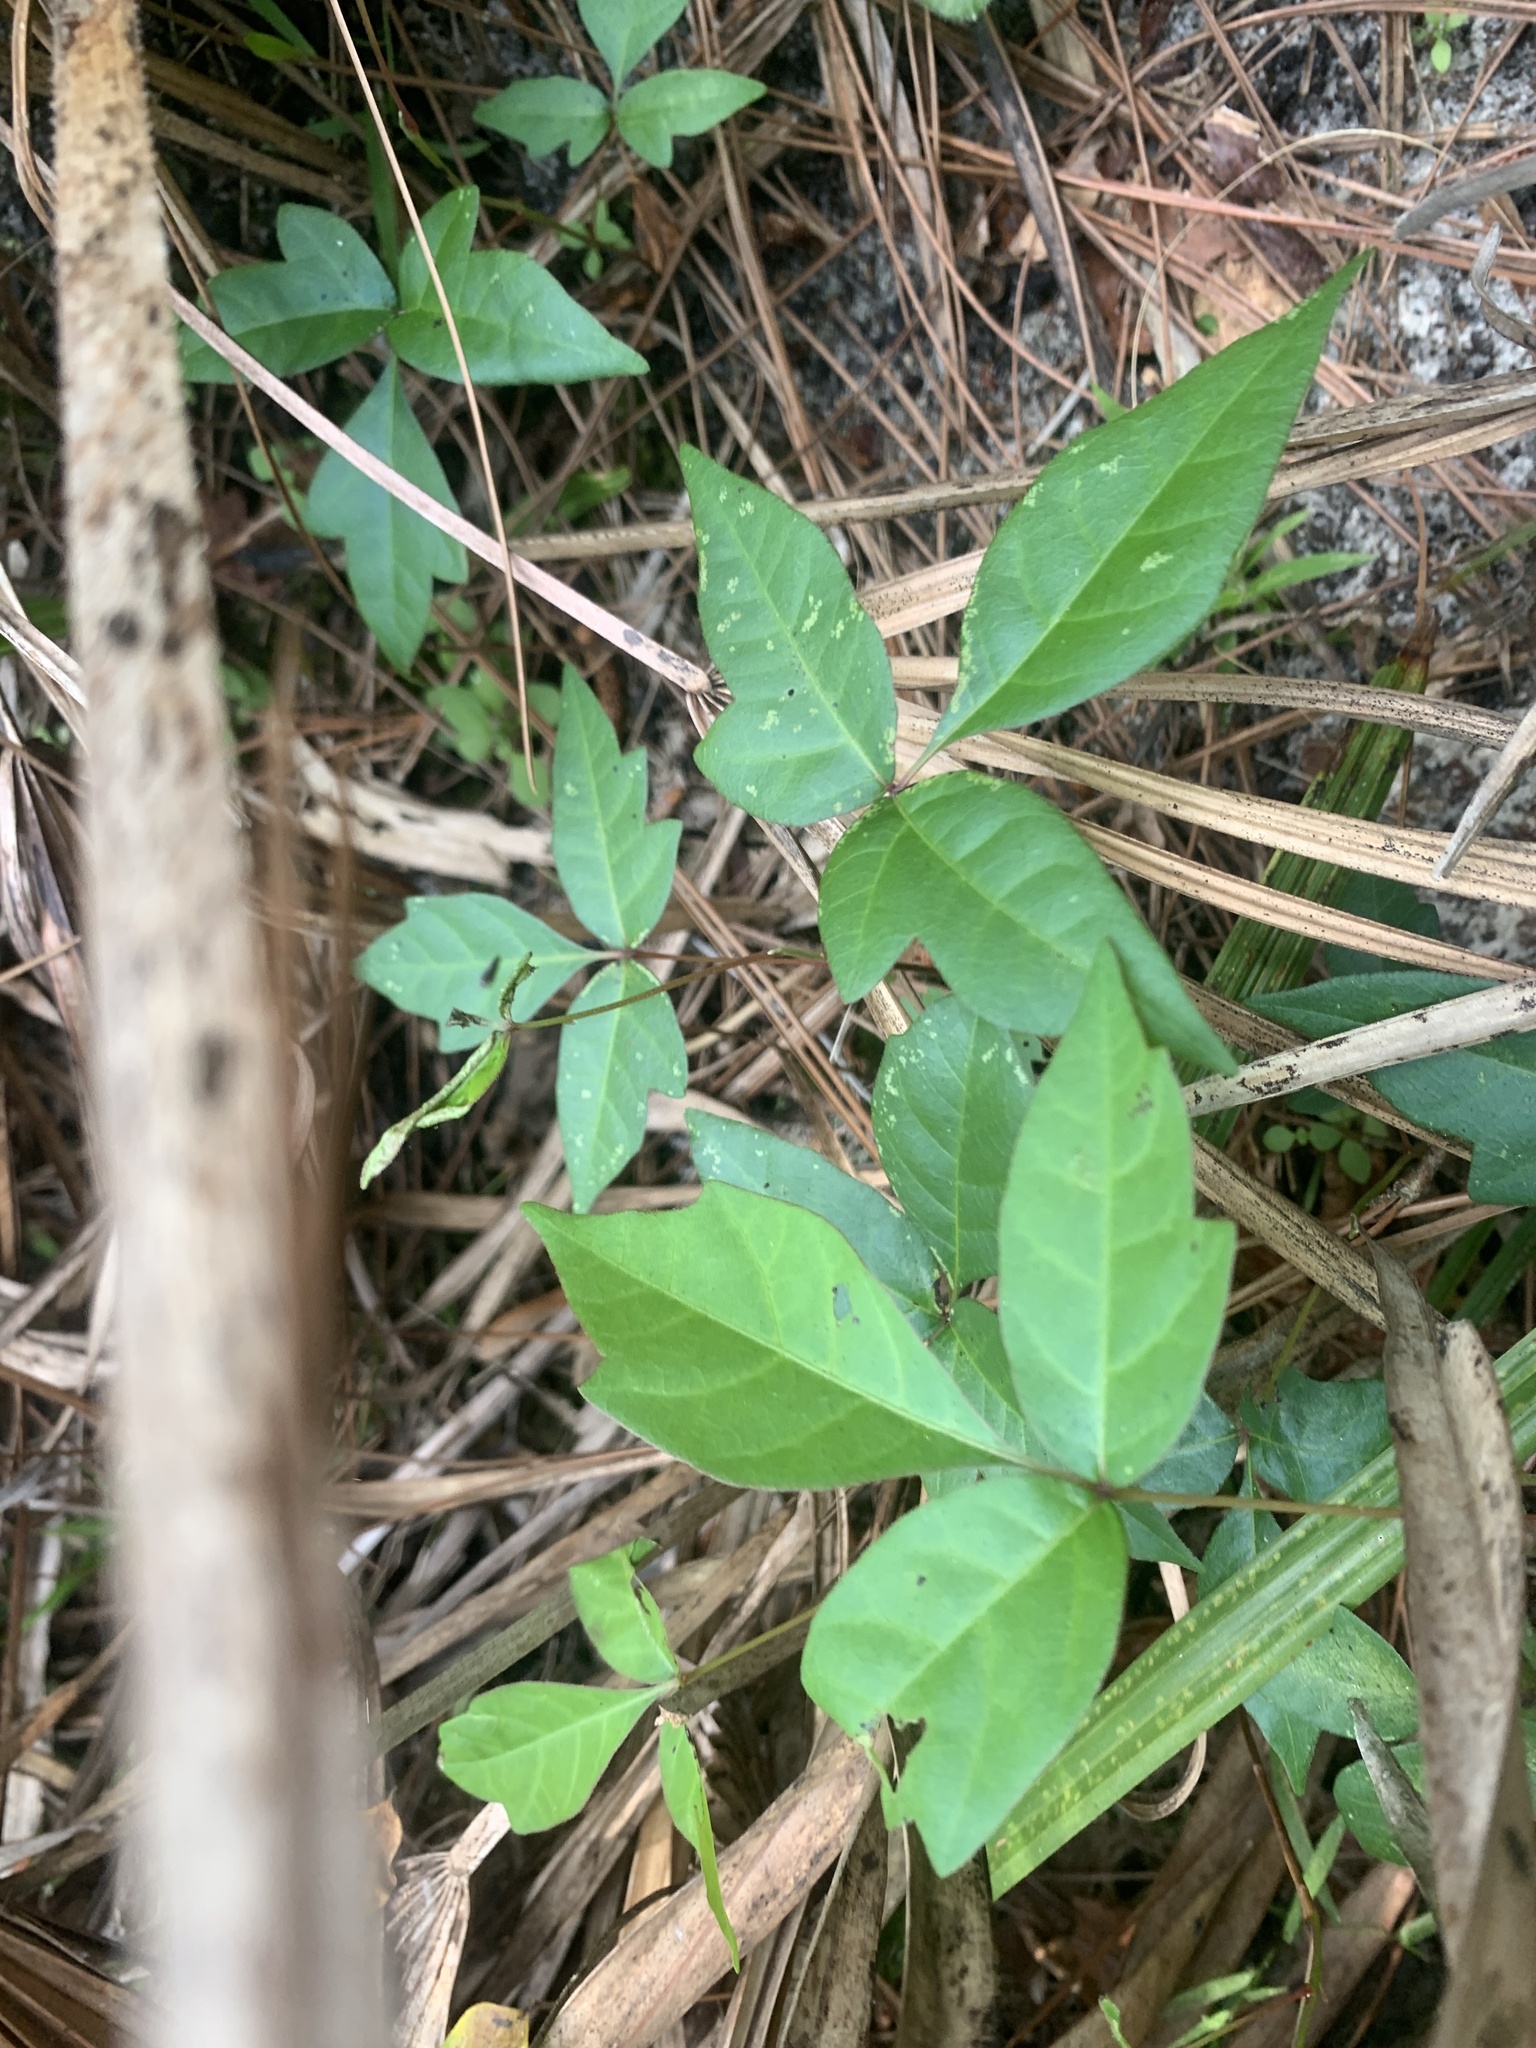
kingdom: Plantae
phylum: Tracheophyta
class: Magnoliopsida
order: Sapindales
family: Anacardiaceae
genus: Toxicodendron
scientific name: Toxicodendron radicans
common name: Poison ivy
